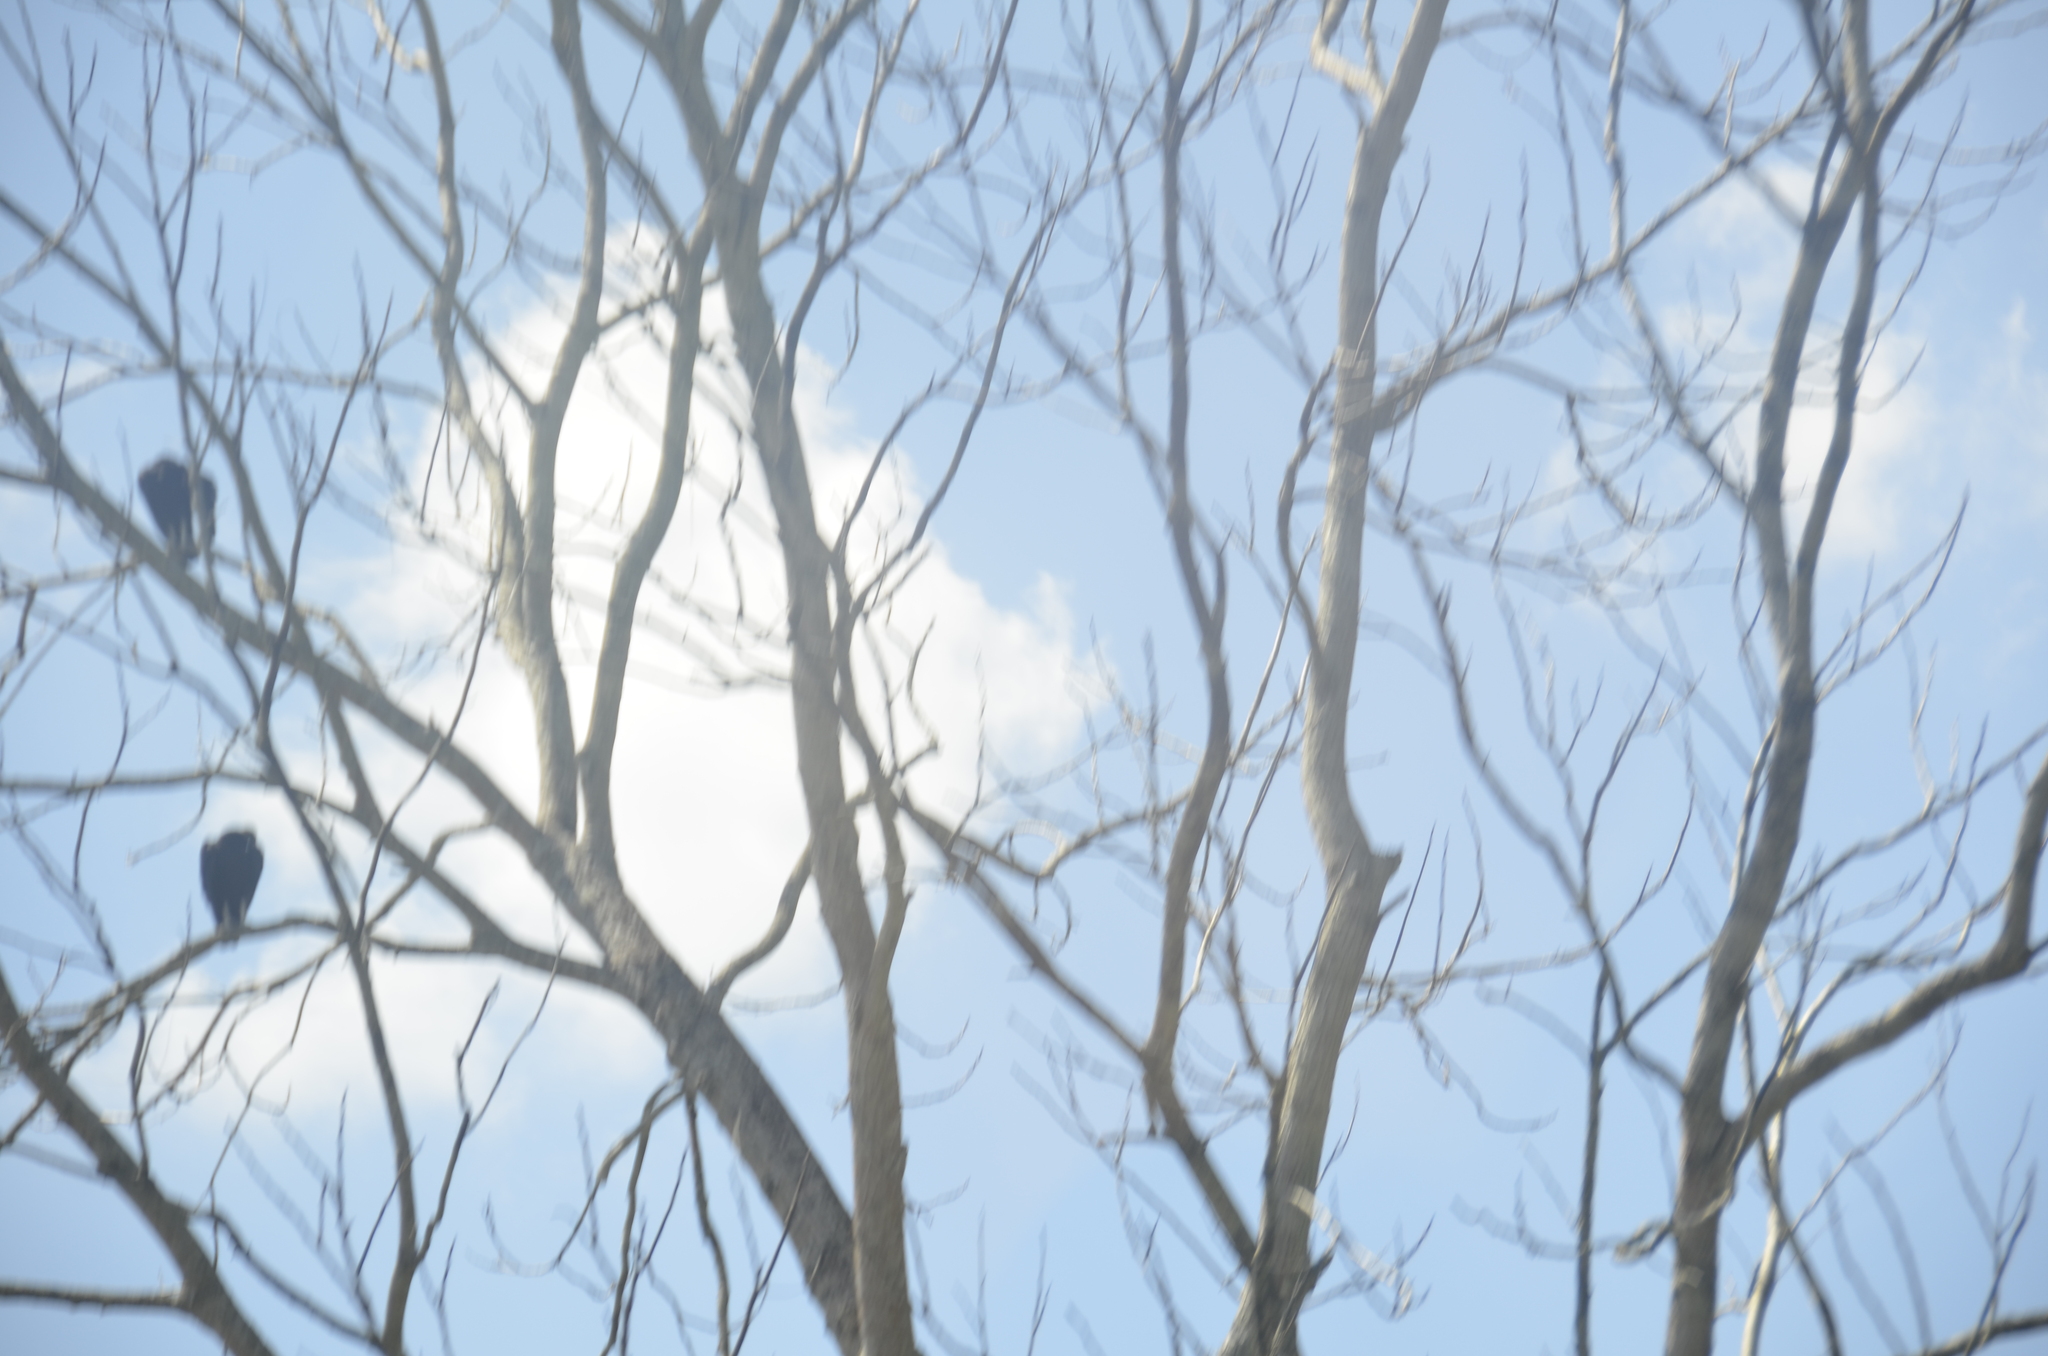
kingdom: Animalia
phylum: Chordata
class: Aves
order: Accipitriformes
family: Cathartidae
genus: Coragyps
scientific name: Coragyps atratus
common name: Black vulture
